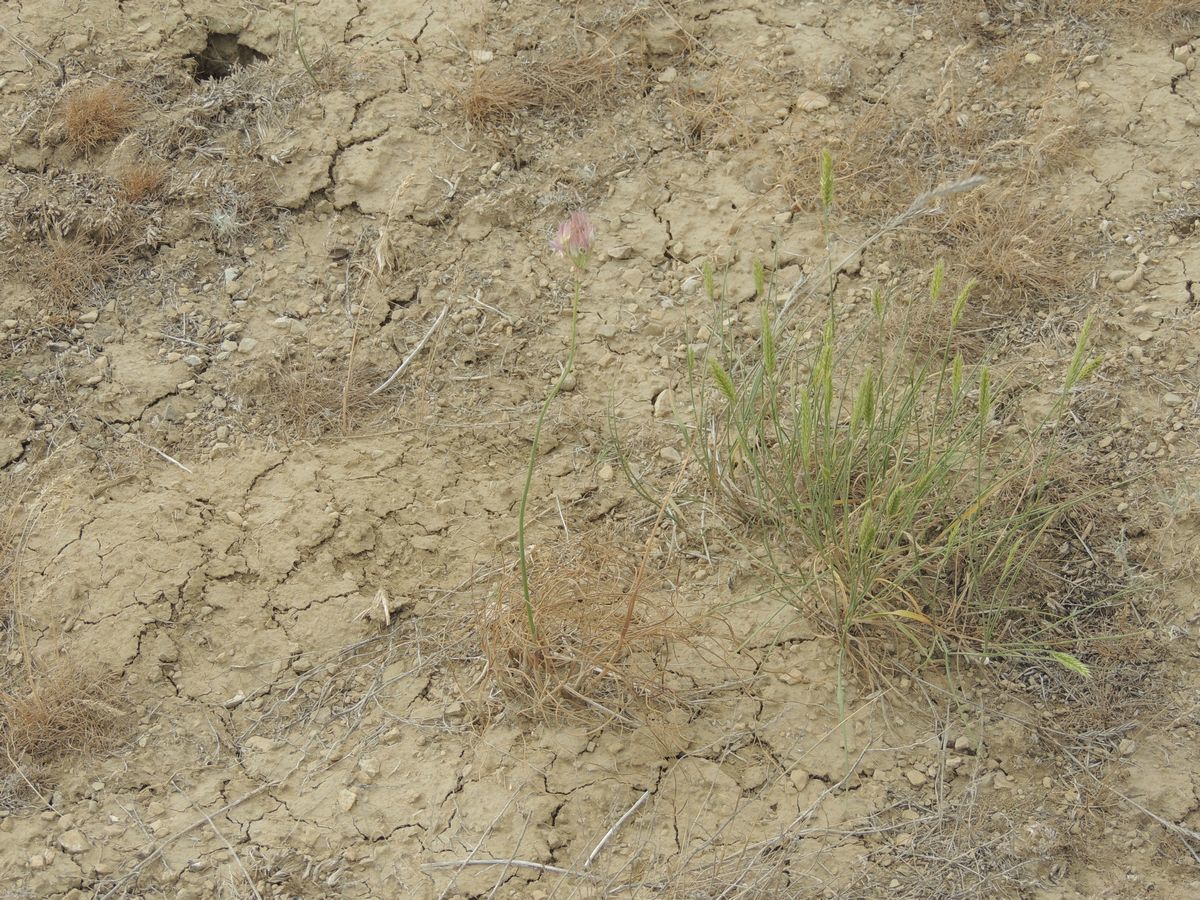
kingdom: Plantae
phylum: Tracheophyta
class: Liliopsida
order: Asparagales
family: Amaryllidaceae
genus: Allium
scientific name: Allium inderiense
